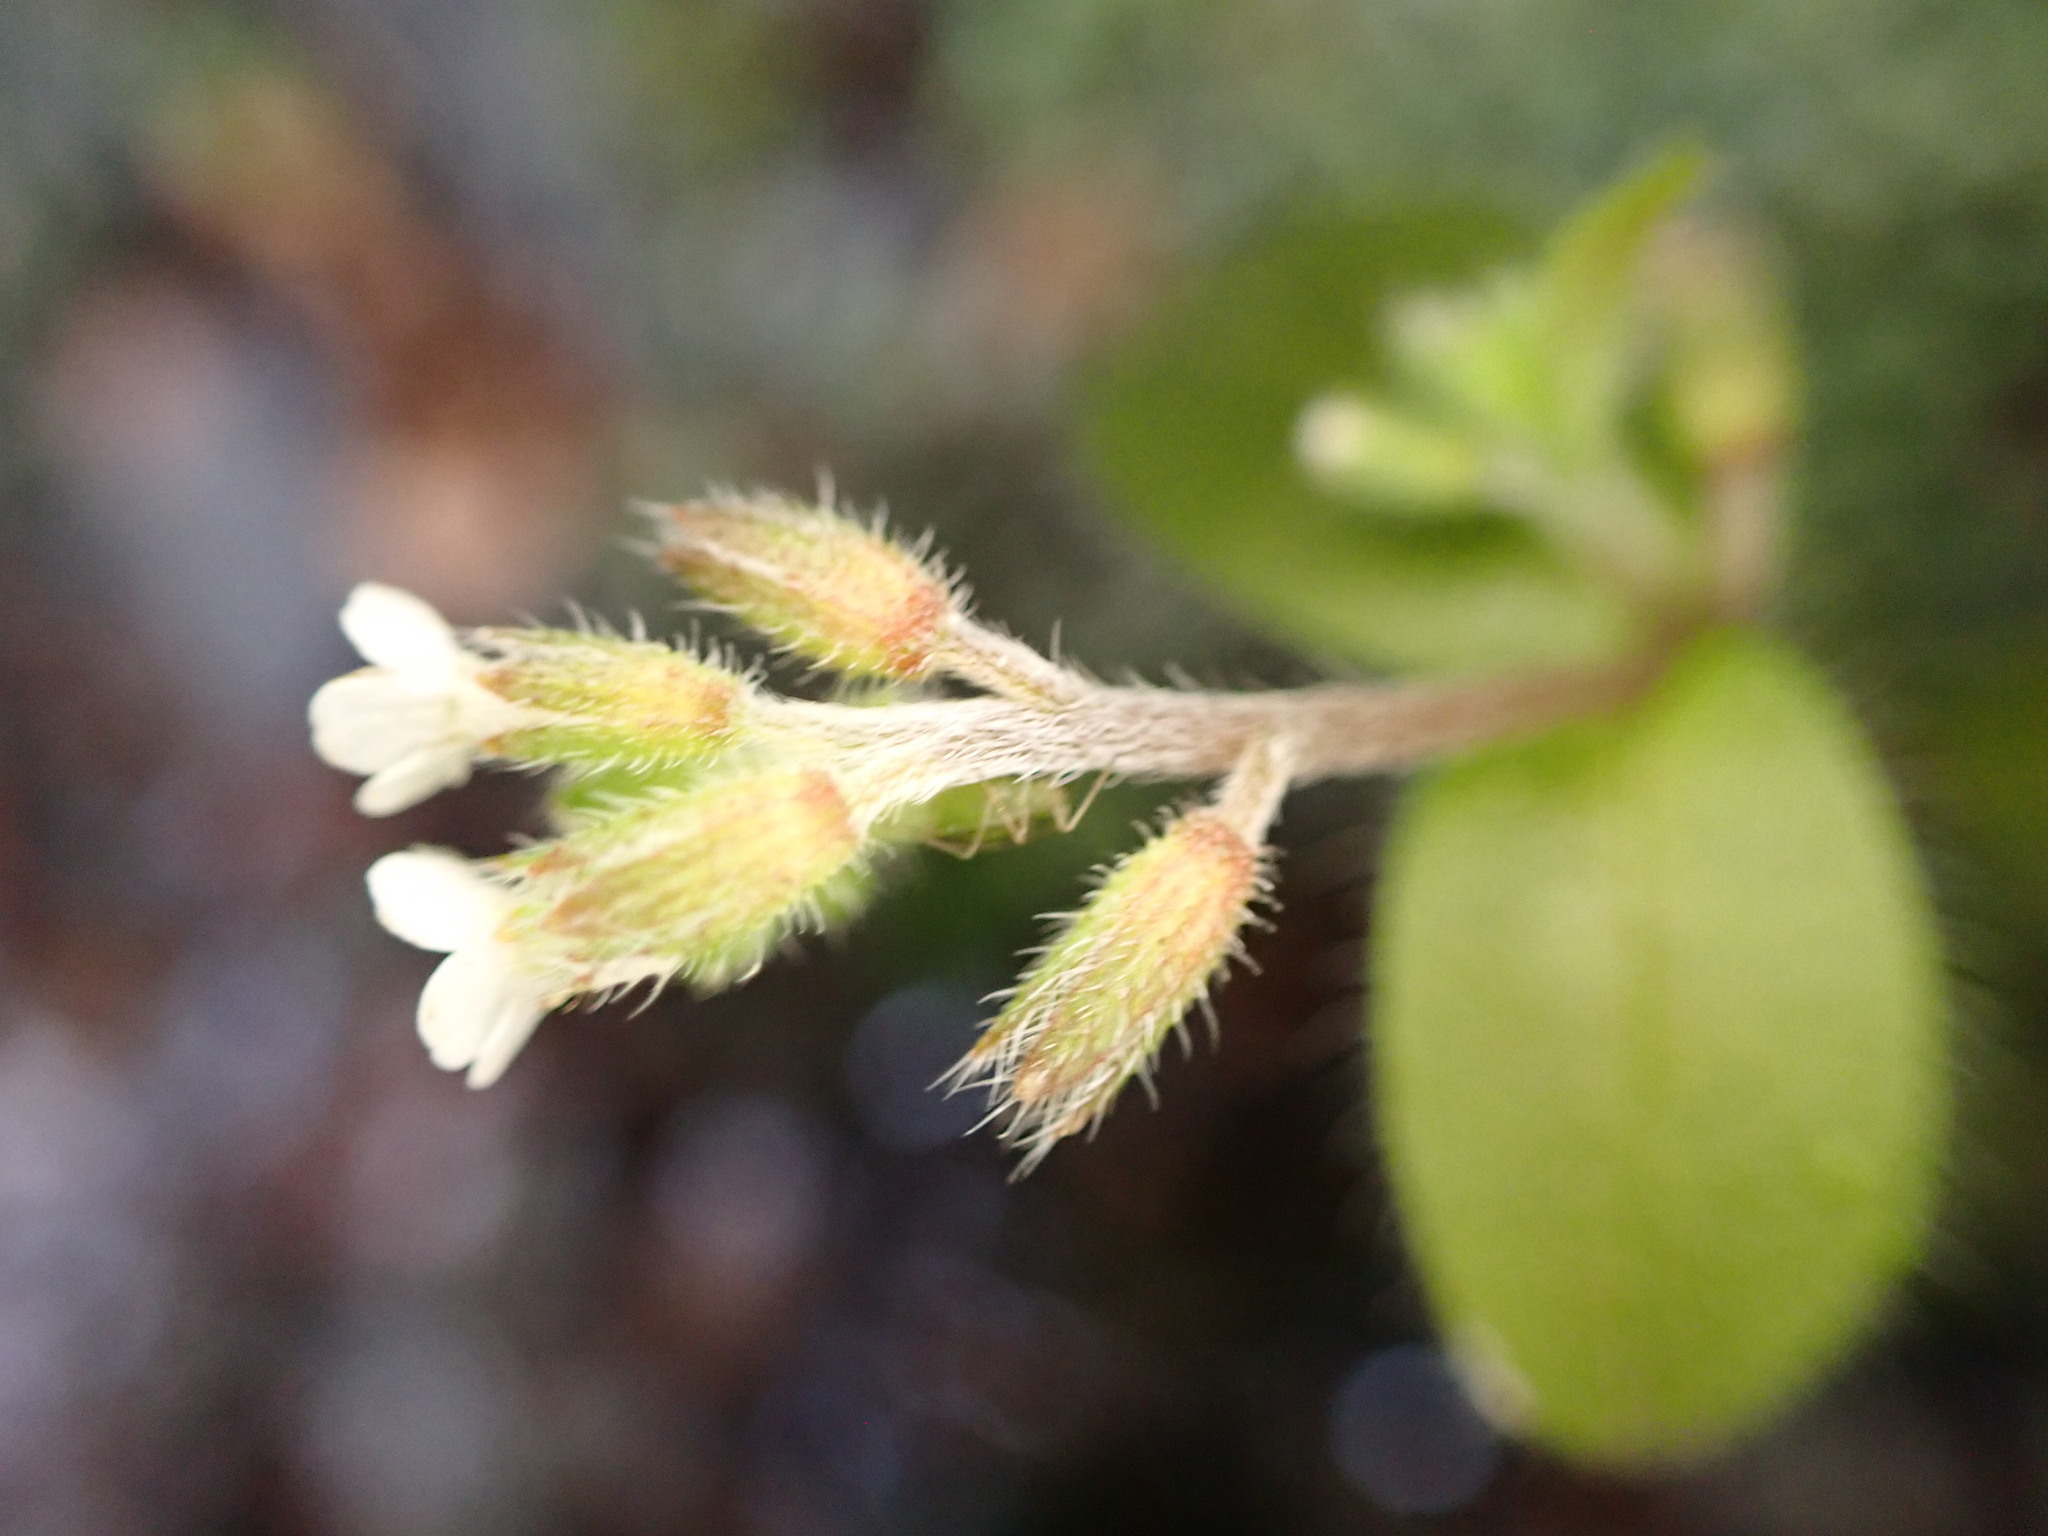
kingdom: Plantae
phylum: Tracheophyta
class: Magnoliopsida
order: Boraginales
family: Boraginaceae
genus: Myosotis
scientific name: Myosotis forsteri
